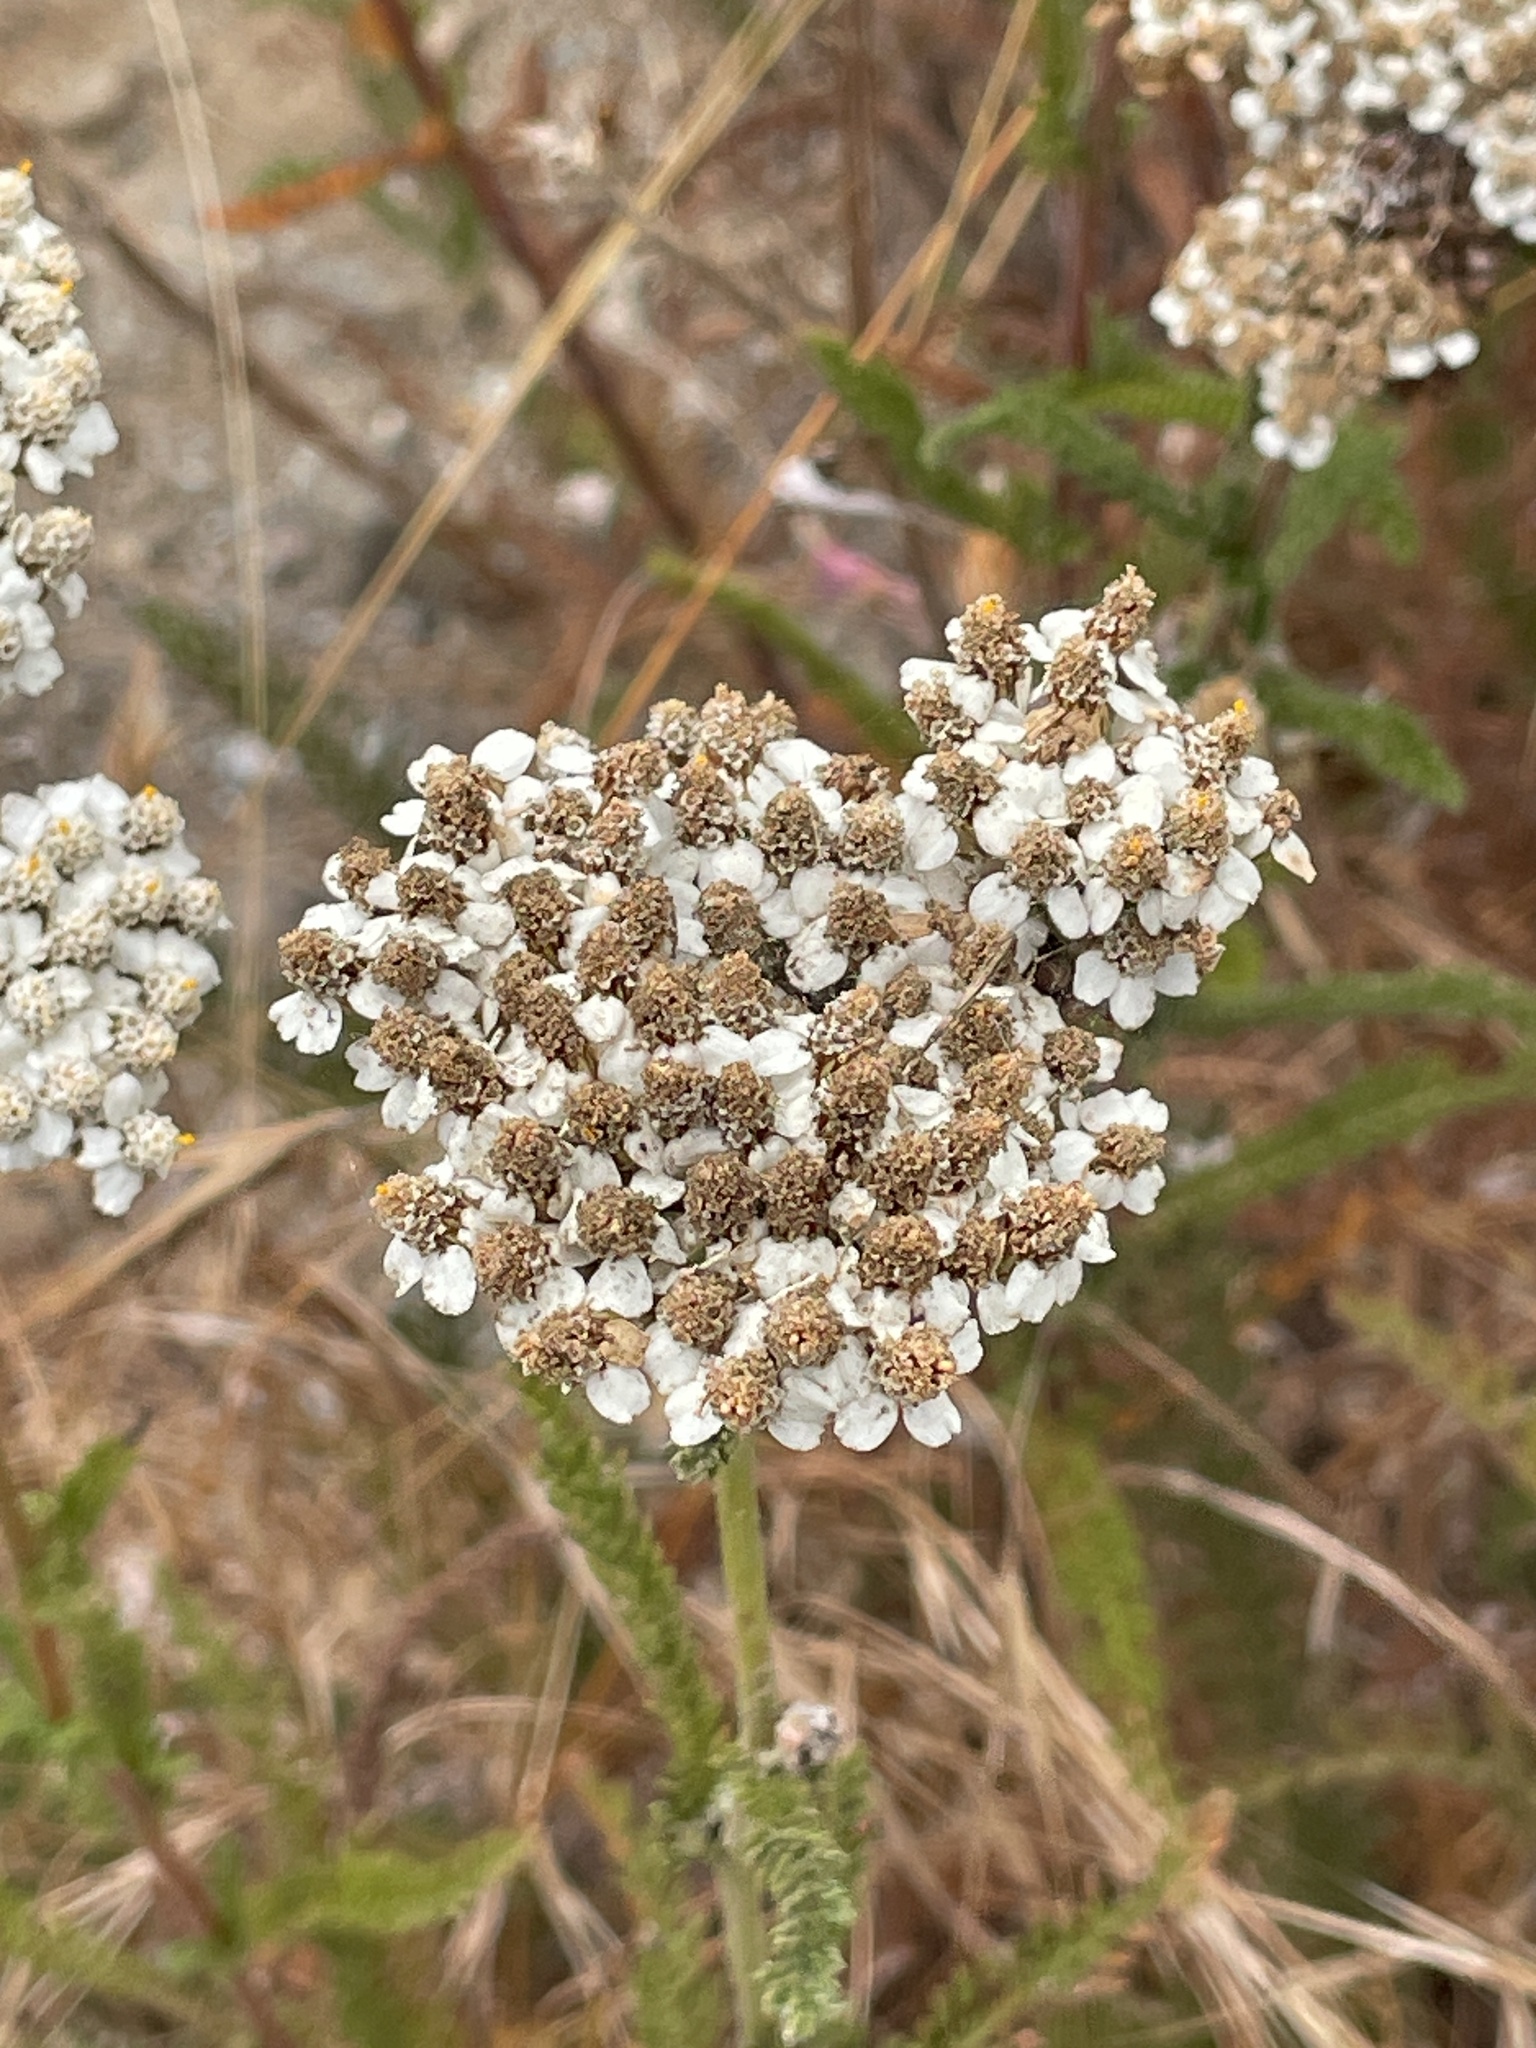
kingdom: Plantae
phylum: Tracheophyta
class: Magnoliopsida
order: Asterales
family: Asteraceae
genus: Achillea
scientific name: Achillea millefolium
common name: Yarrow
